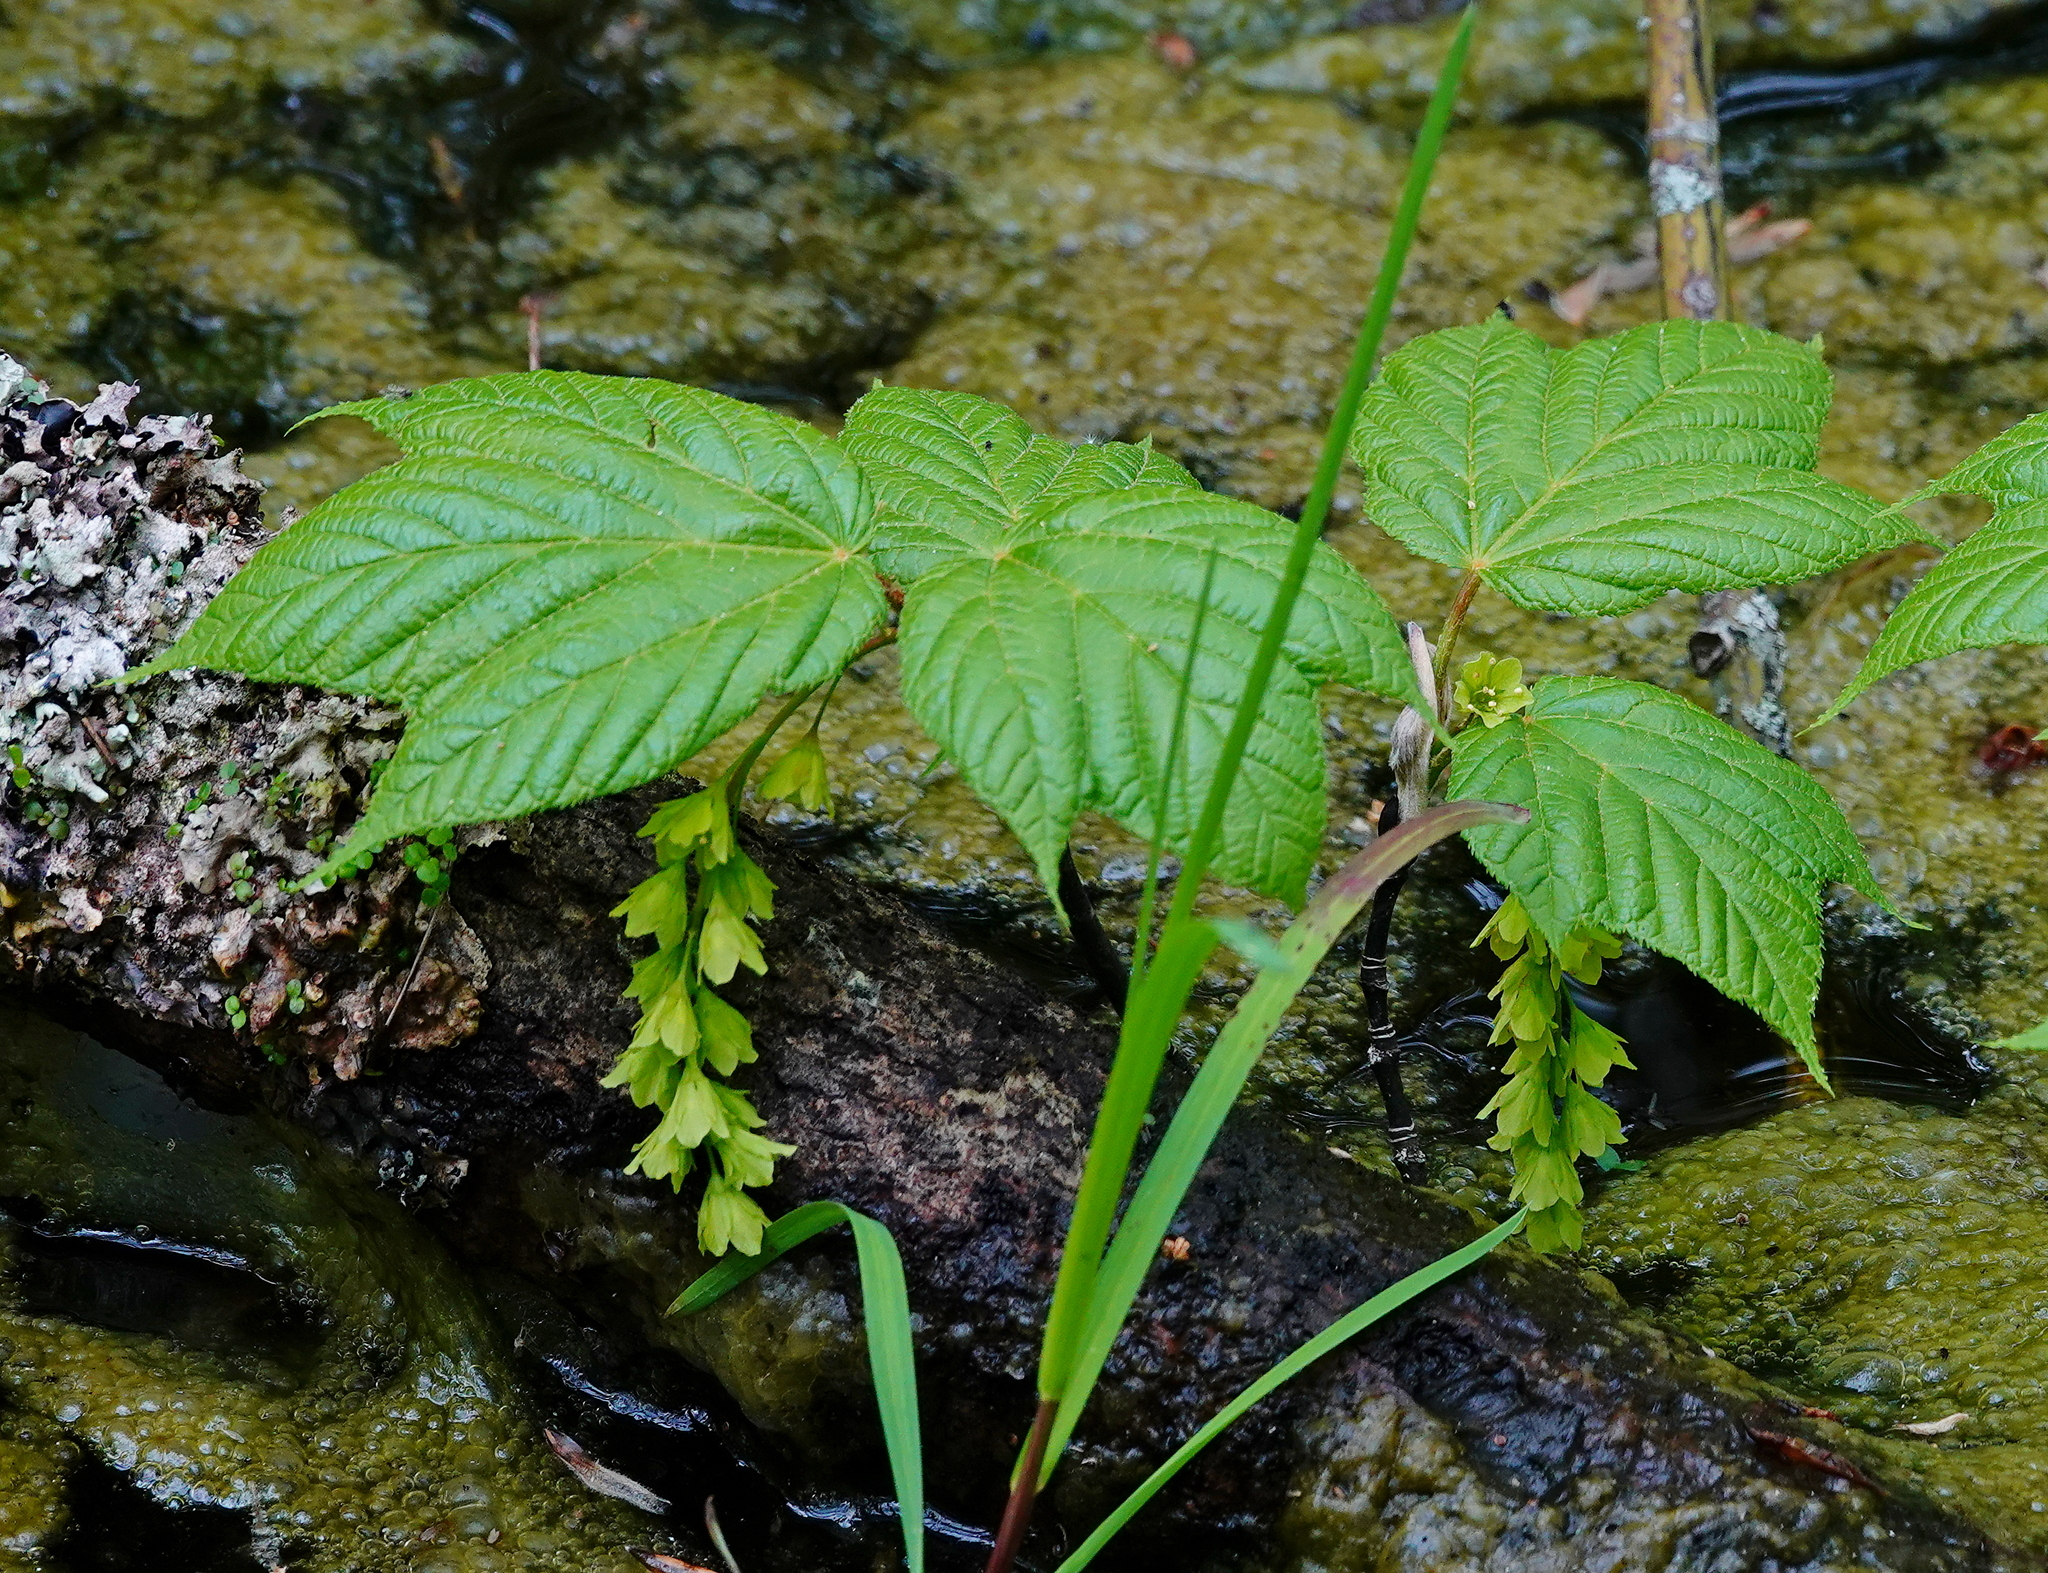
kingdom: Plantae
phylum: Tracheophyta
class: Magnoliopsida
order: Sapindales
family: Sapindaceae
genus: Acer
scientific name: Acer pensylvanicum
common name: Moosewood
